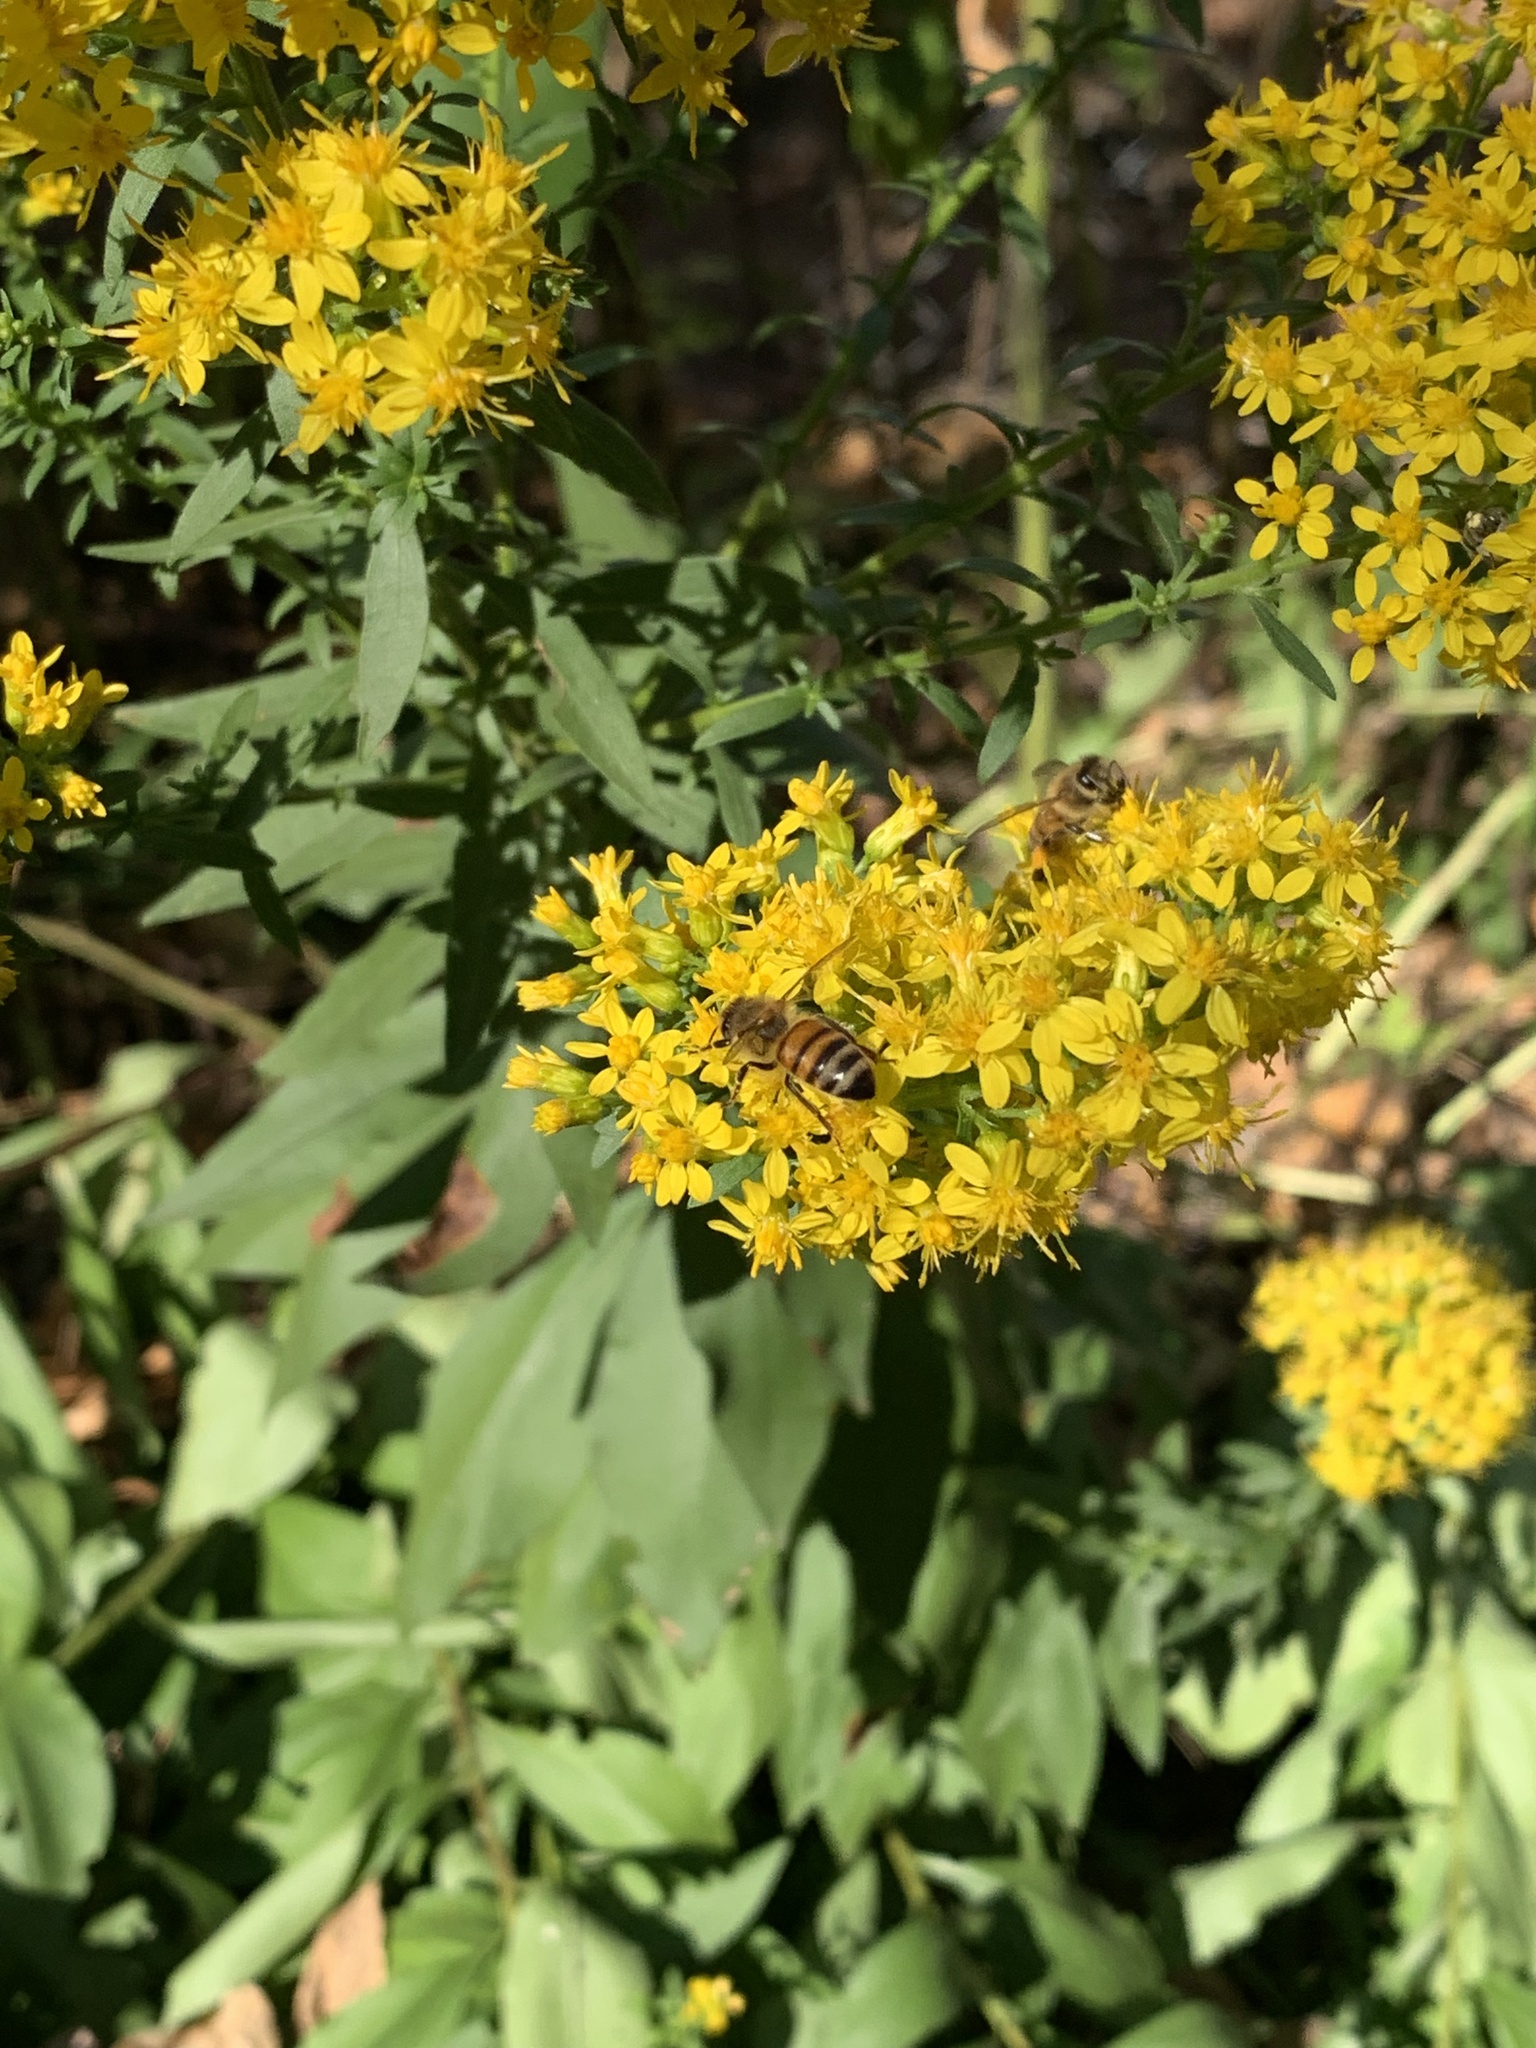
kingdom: Animalia
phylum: Arthropoda
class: Insecta
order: Hymenoptera
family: Apidae
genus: Apis
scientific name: Apis mellifera
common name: Honey bee
